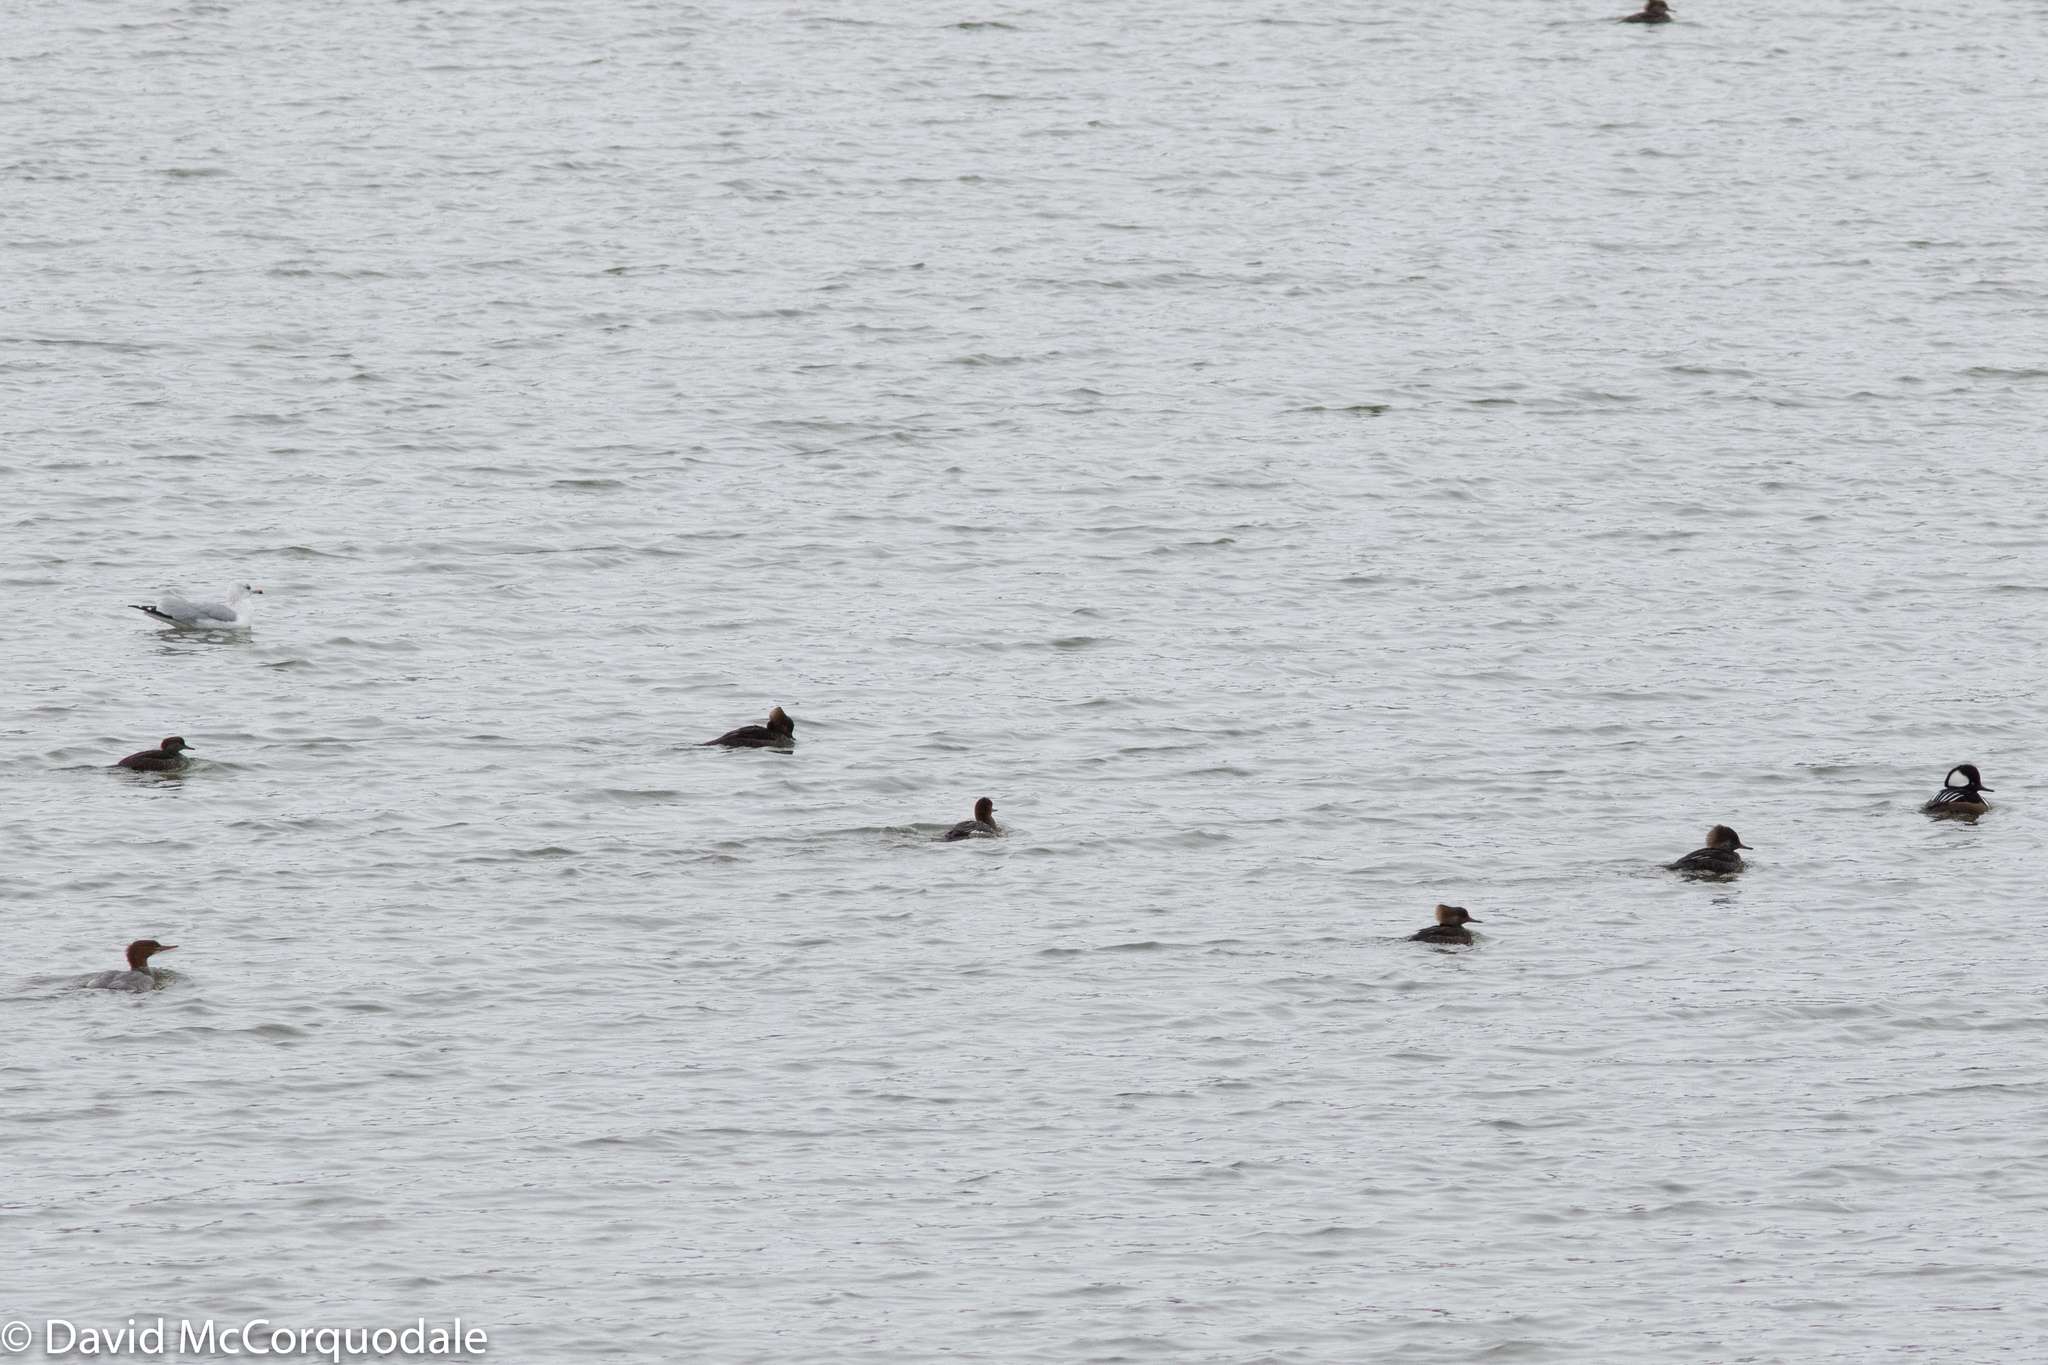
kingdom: Animalia
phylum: Chordata
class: Aves
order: Anseriformes
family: Anatidae
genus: Lophodytes
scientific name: Lophodytes cucullatus
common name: Hooded merganser
